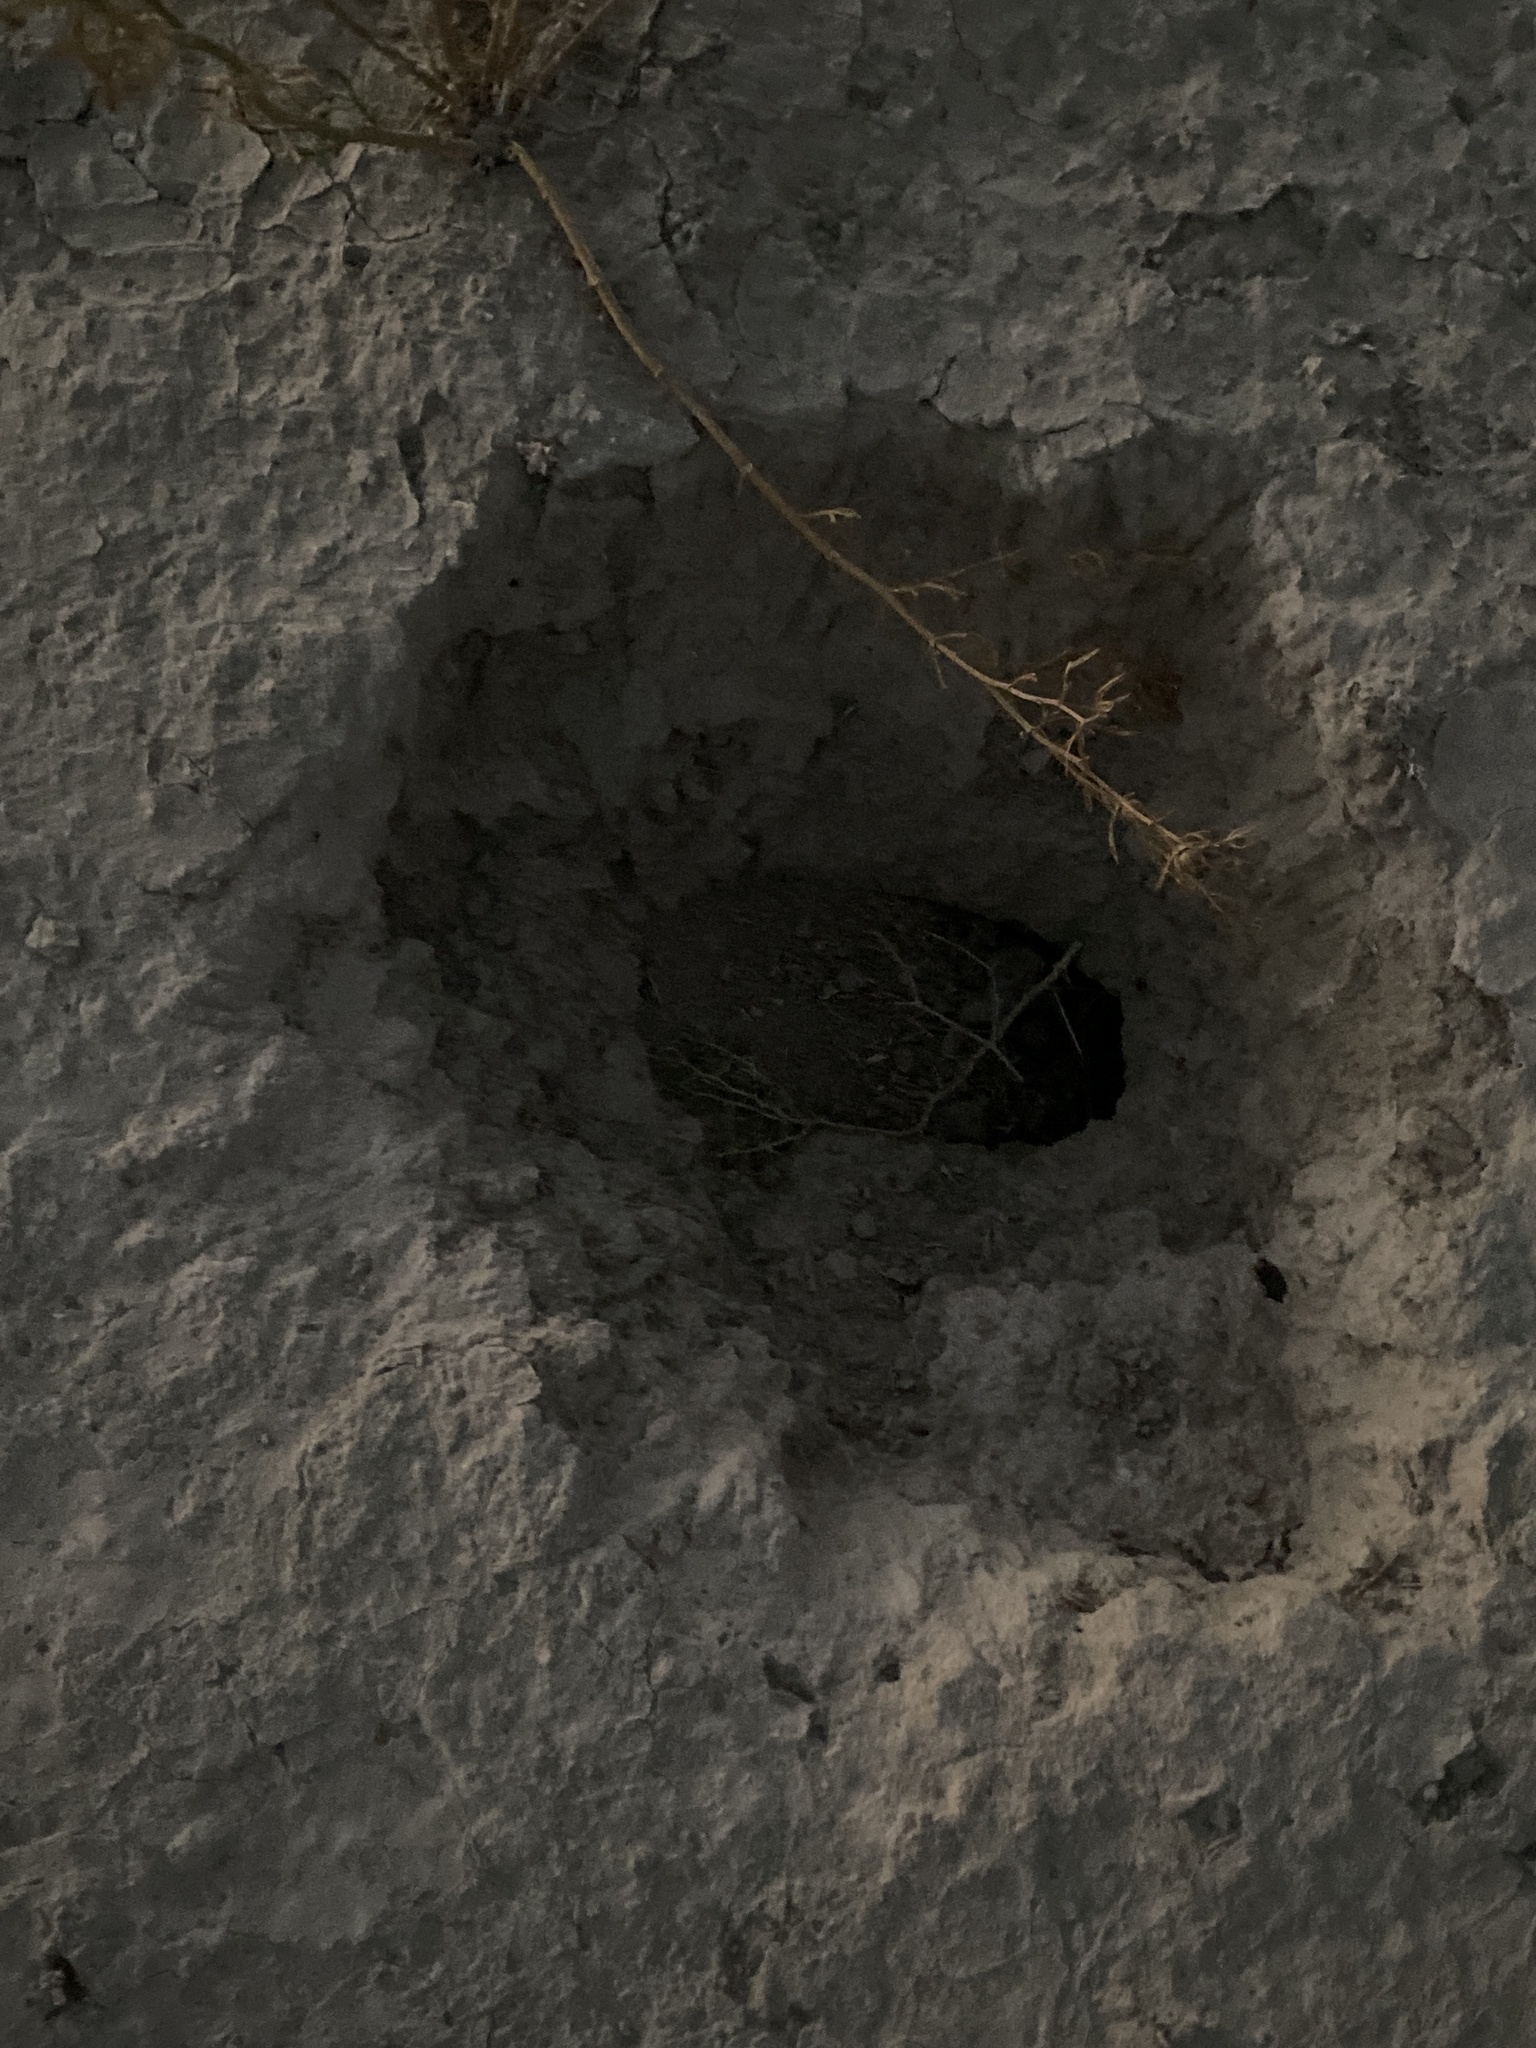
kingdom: Animalia
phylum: Chordata
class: Amphibia
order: Anura
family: Bufonidae
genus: Bufotes
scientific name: Bufotes viridis
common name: European green toad
